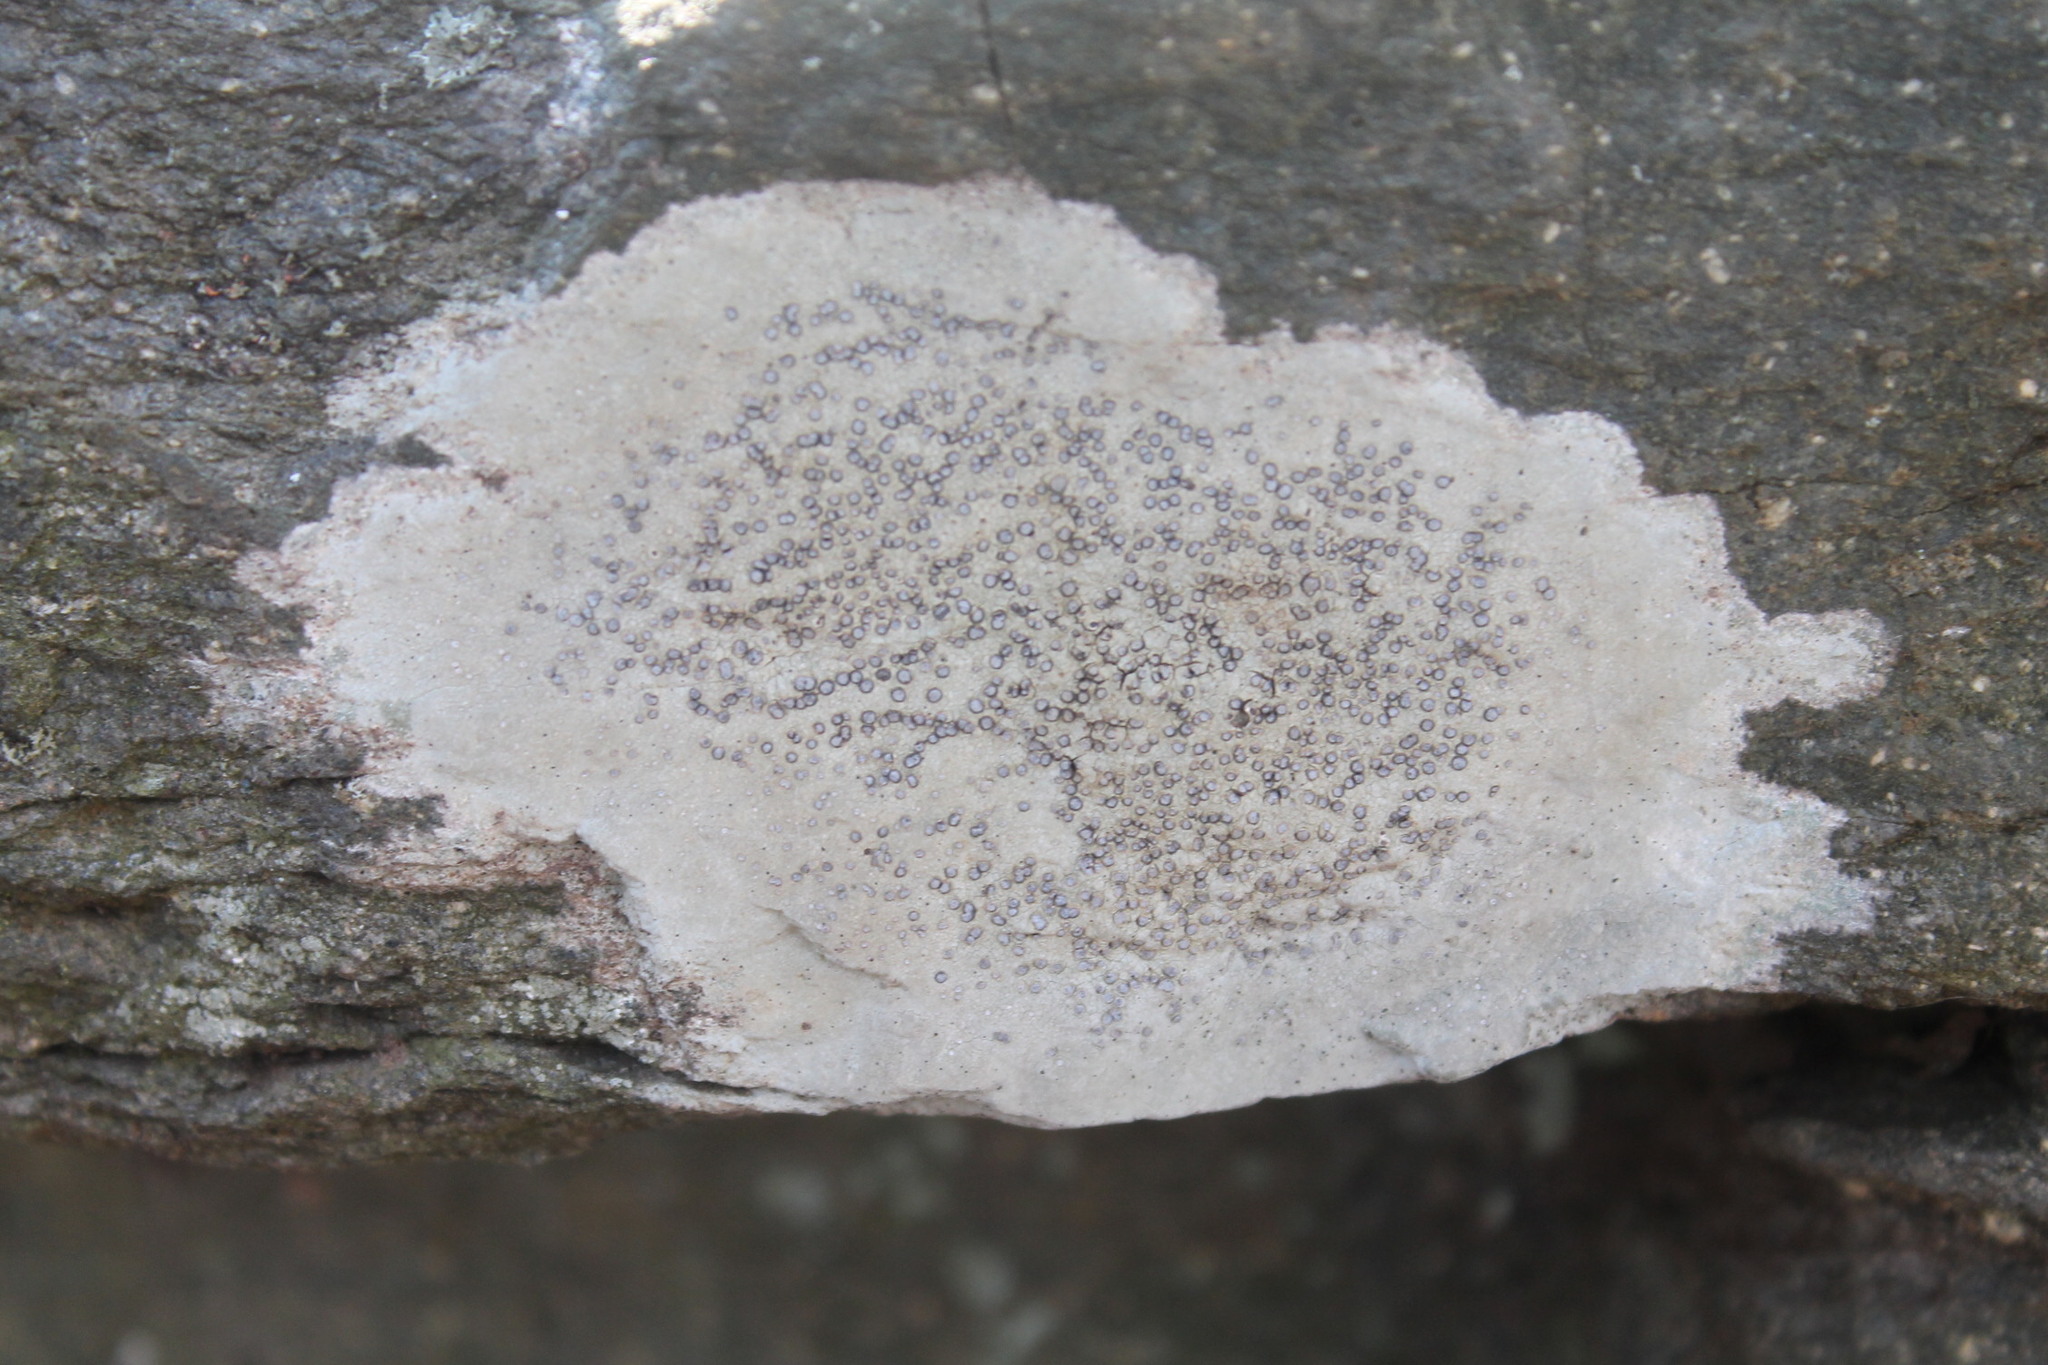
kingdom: Fungi
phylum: Ascomycota
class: Lecanoromycetes
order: Lecideales
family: Lecideaceae
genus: Porpidia
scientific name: Porpidia albocaerulescens
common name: Smokey-eyed boulder lichen
